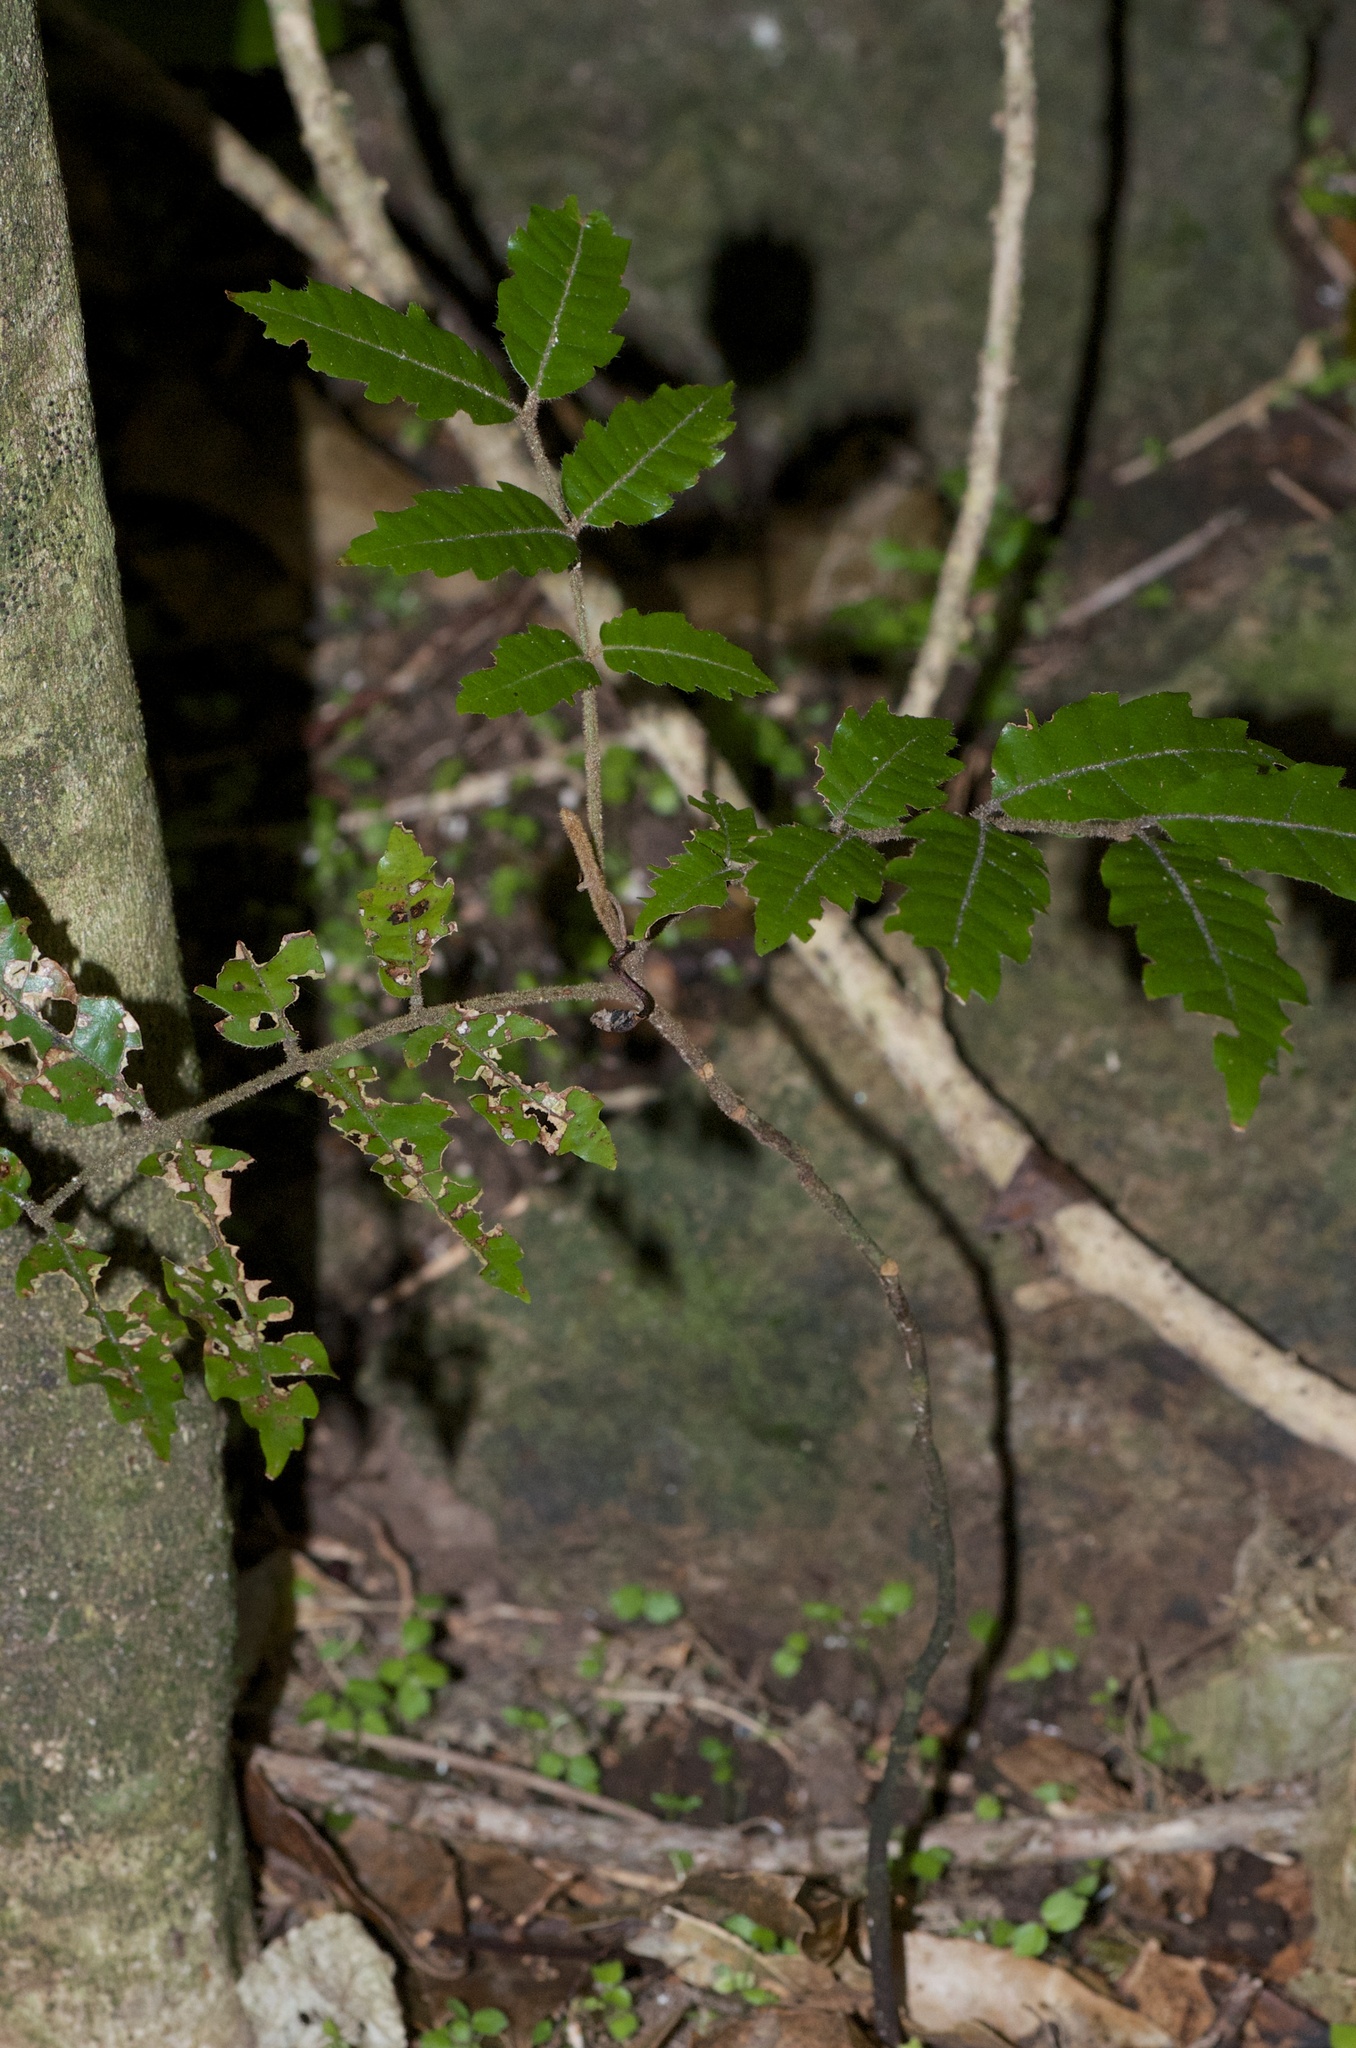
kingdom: Plantae
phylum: Tracheophyta
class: Magnoliopsida
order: Sapindales
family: Sapindaceae
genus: Alectryon
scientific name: Alectryon excelsus
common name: Three kings titoki
